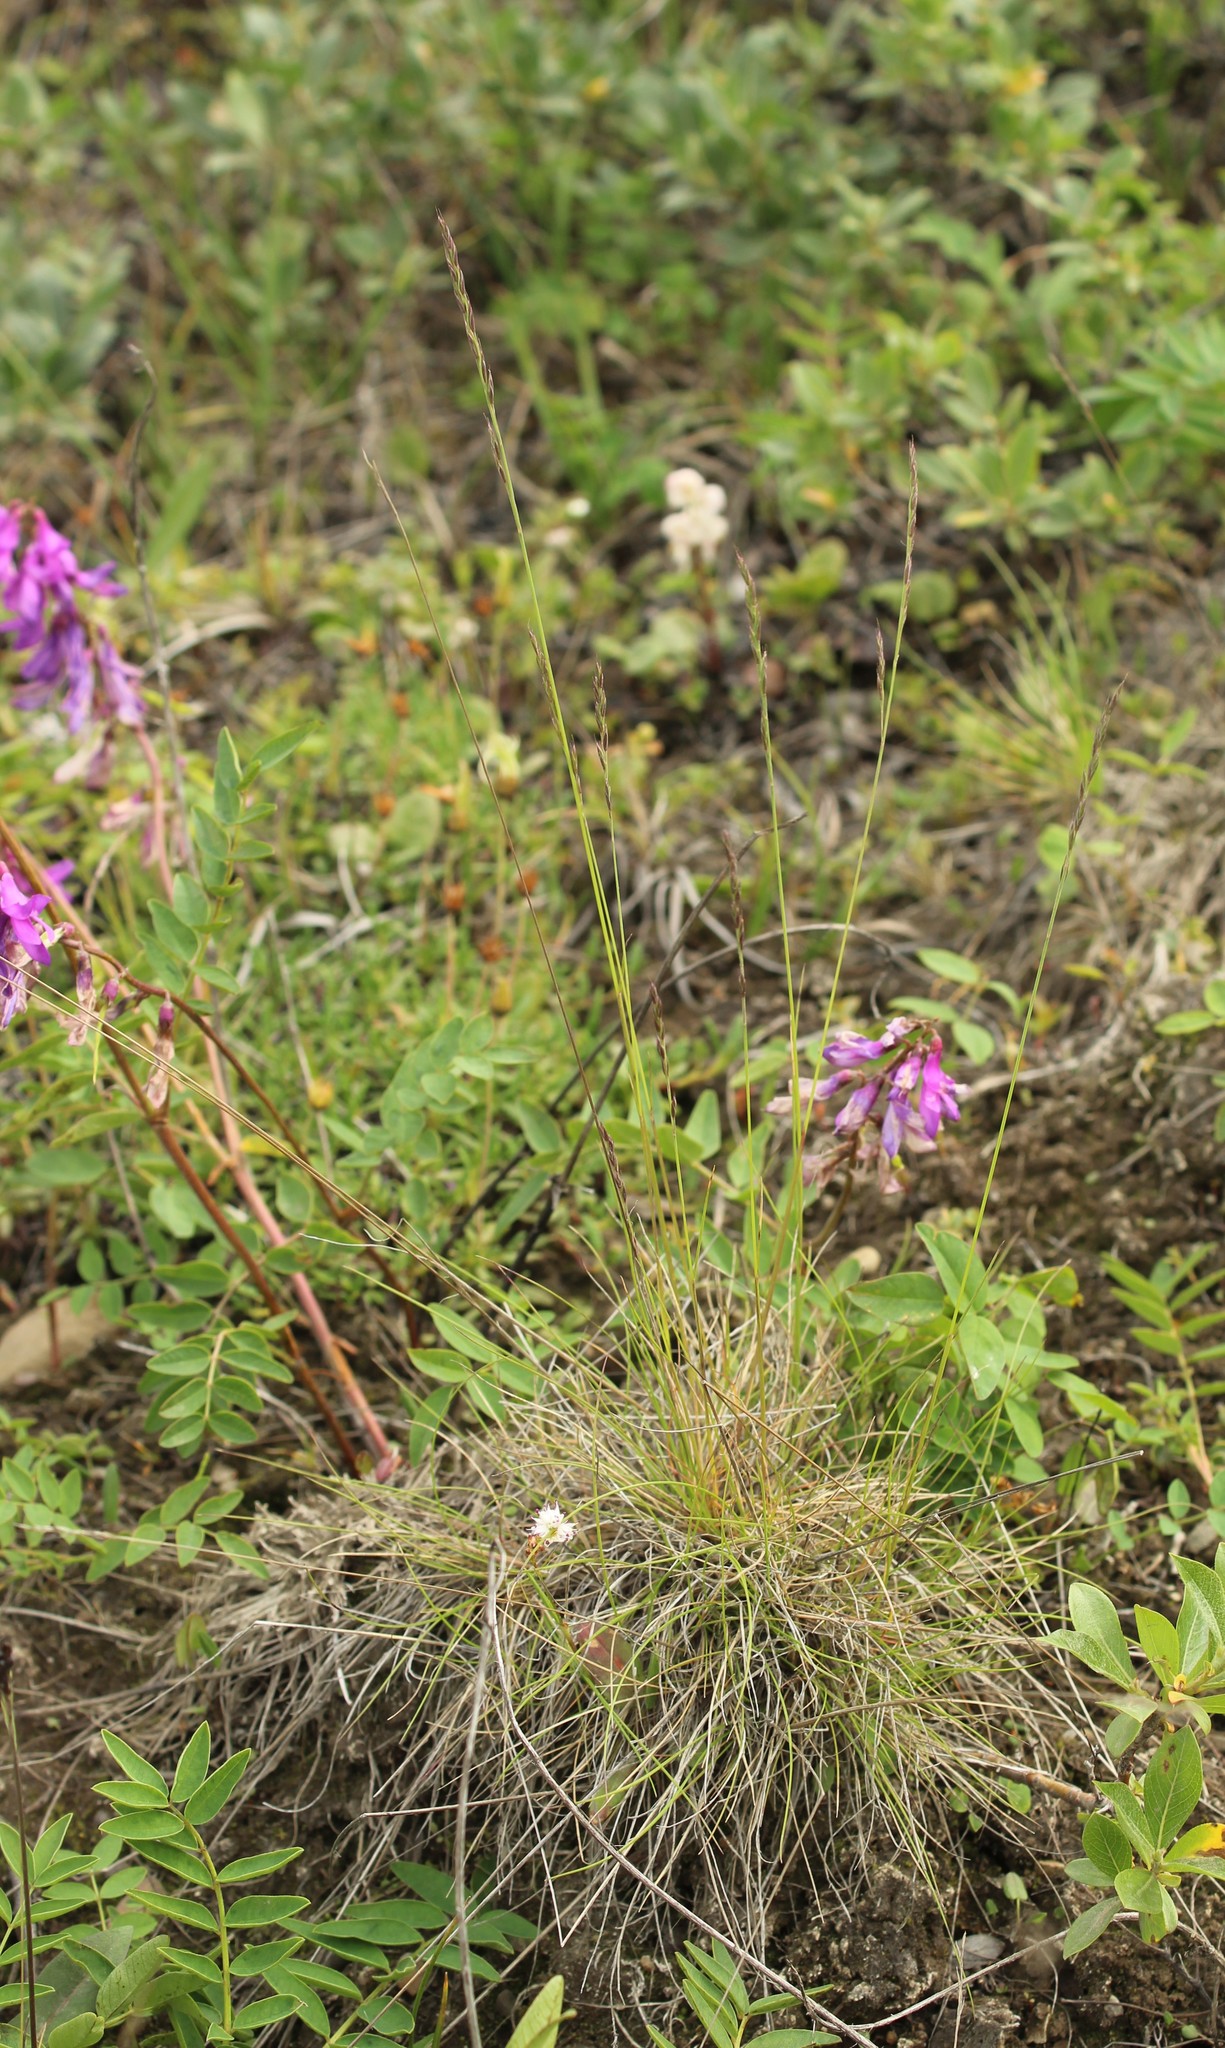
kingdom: Plantae
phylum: Tracheophyta
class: Liliopsida
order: Poales
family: Poaceae
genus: Festuca
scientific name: Festuca ovina
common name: Sheep fescue
